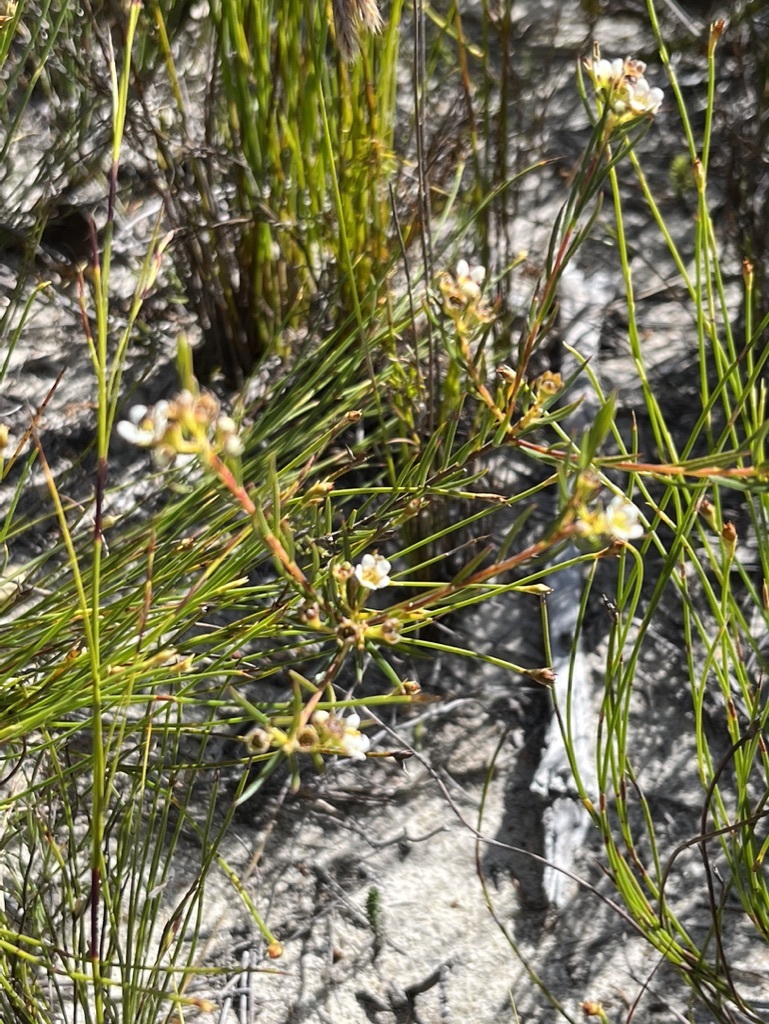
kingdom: Plantae
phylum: Tracheophyta
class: Magnoliopsida
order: Sapindales
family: Rutaceae
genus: Diosma
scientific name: Diosma hirsuta
